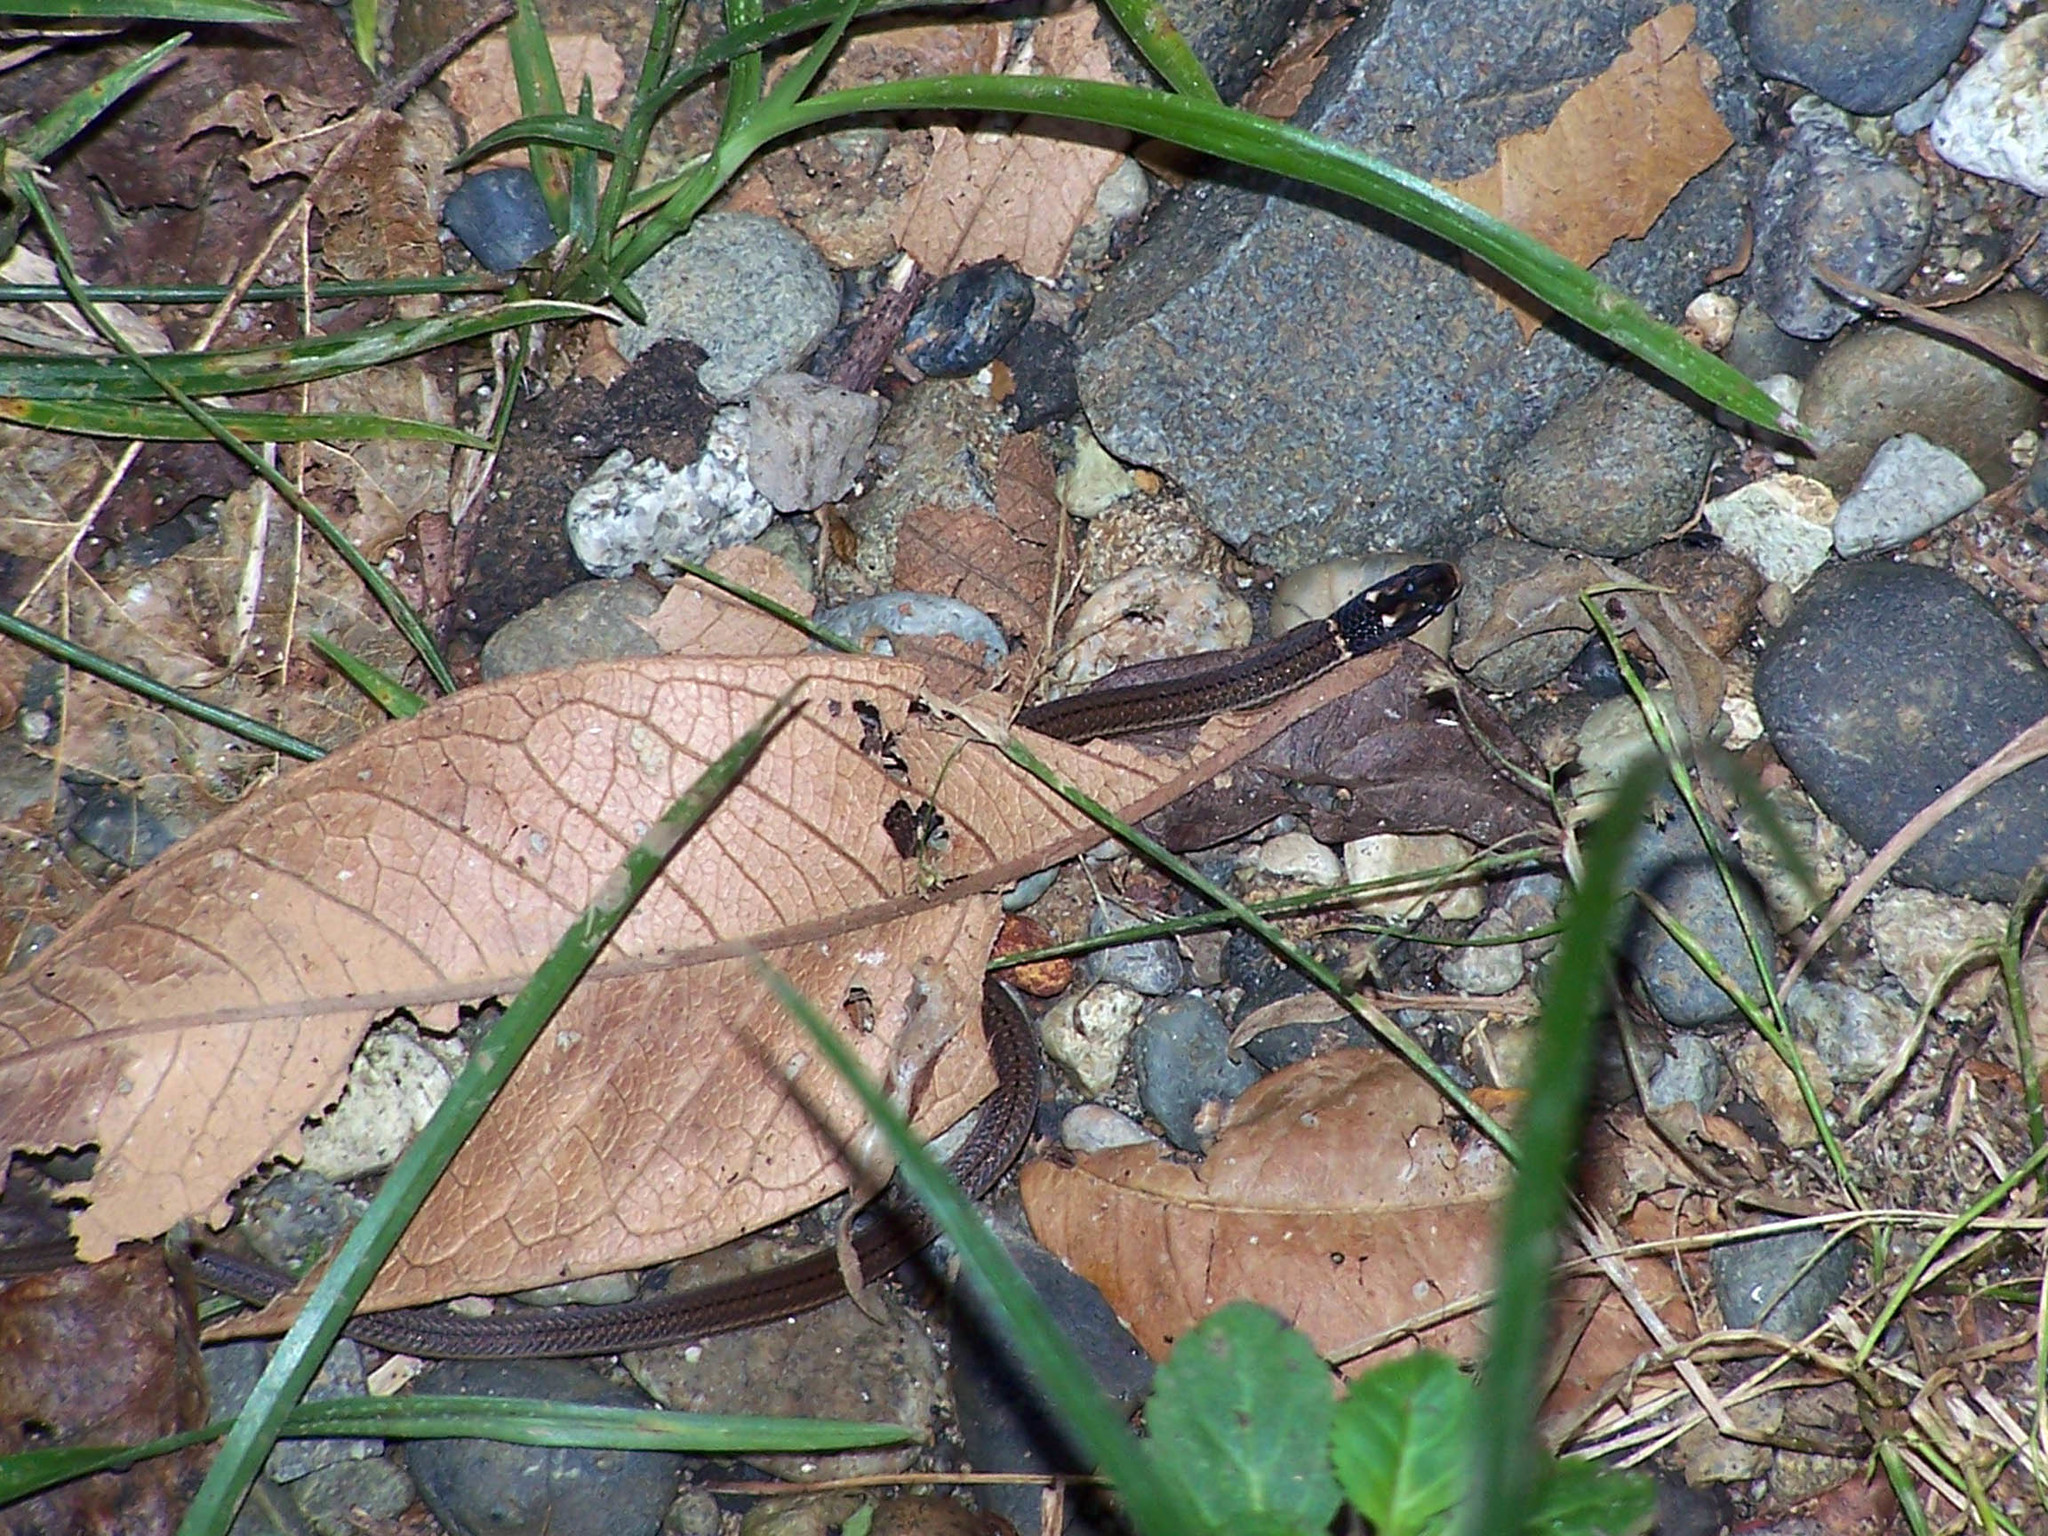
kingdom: Animalia
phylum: Chordata
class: Squamata
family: Colubridae
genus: Tantilla
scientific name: Tantilla armillata
